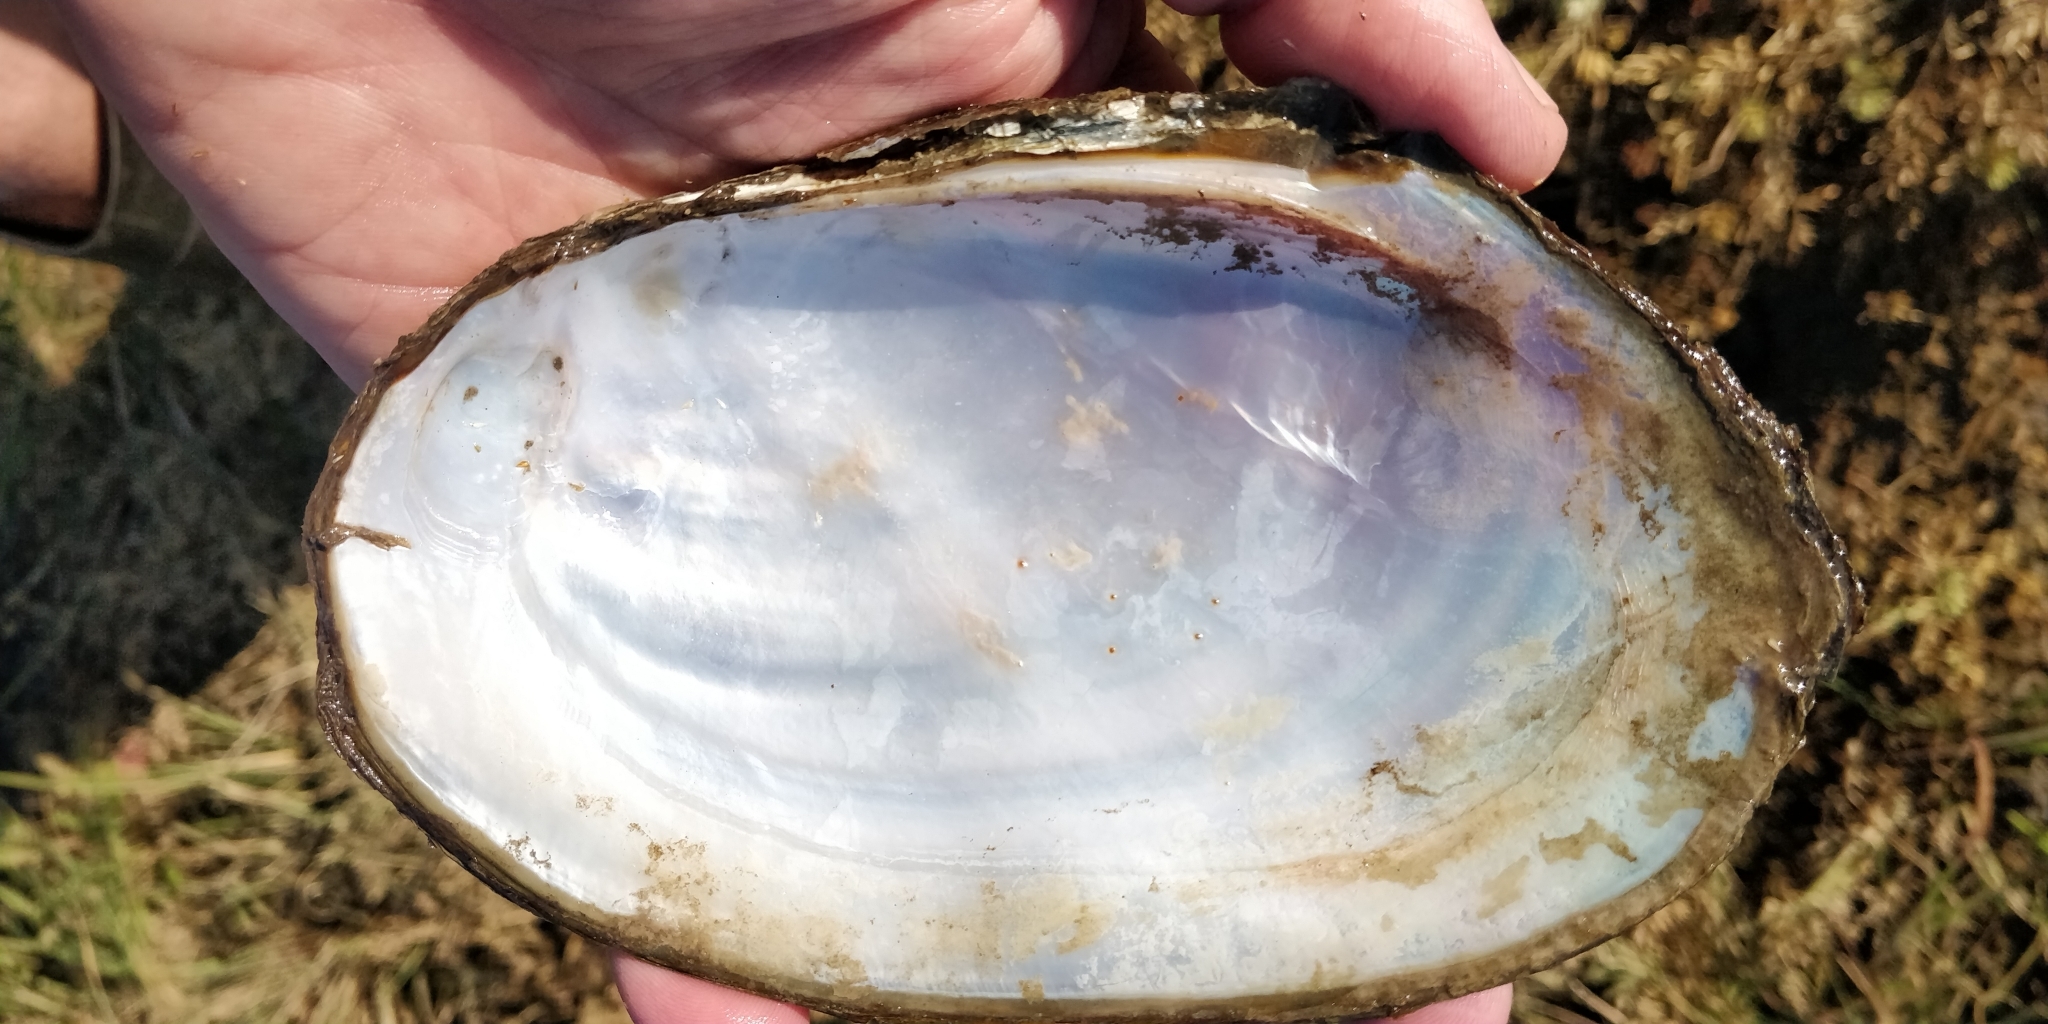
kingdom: Animalia
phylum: Mollusca
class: Bivalvia
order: Unionida
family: Unionidae
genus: Potamilus
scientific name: Potamilus fragilis
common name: Fragile papershell
